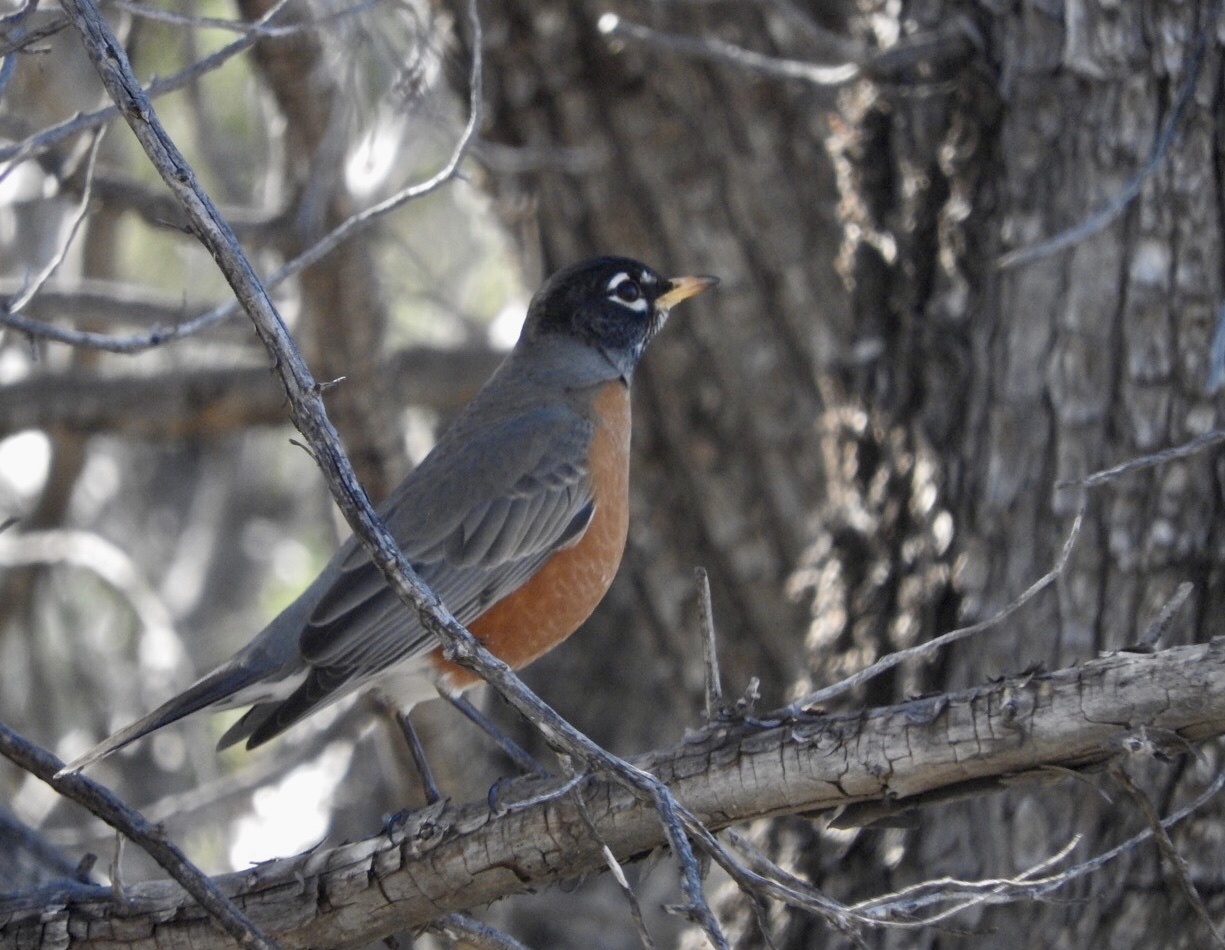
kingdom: Animalia
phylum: Chordata
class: Aves
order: Passeriformes
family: Turdidae
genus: Turdus
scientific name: Turdus migratorius
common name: American robin
